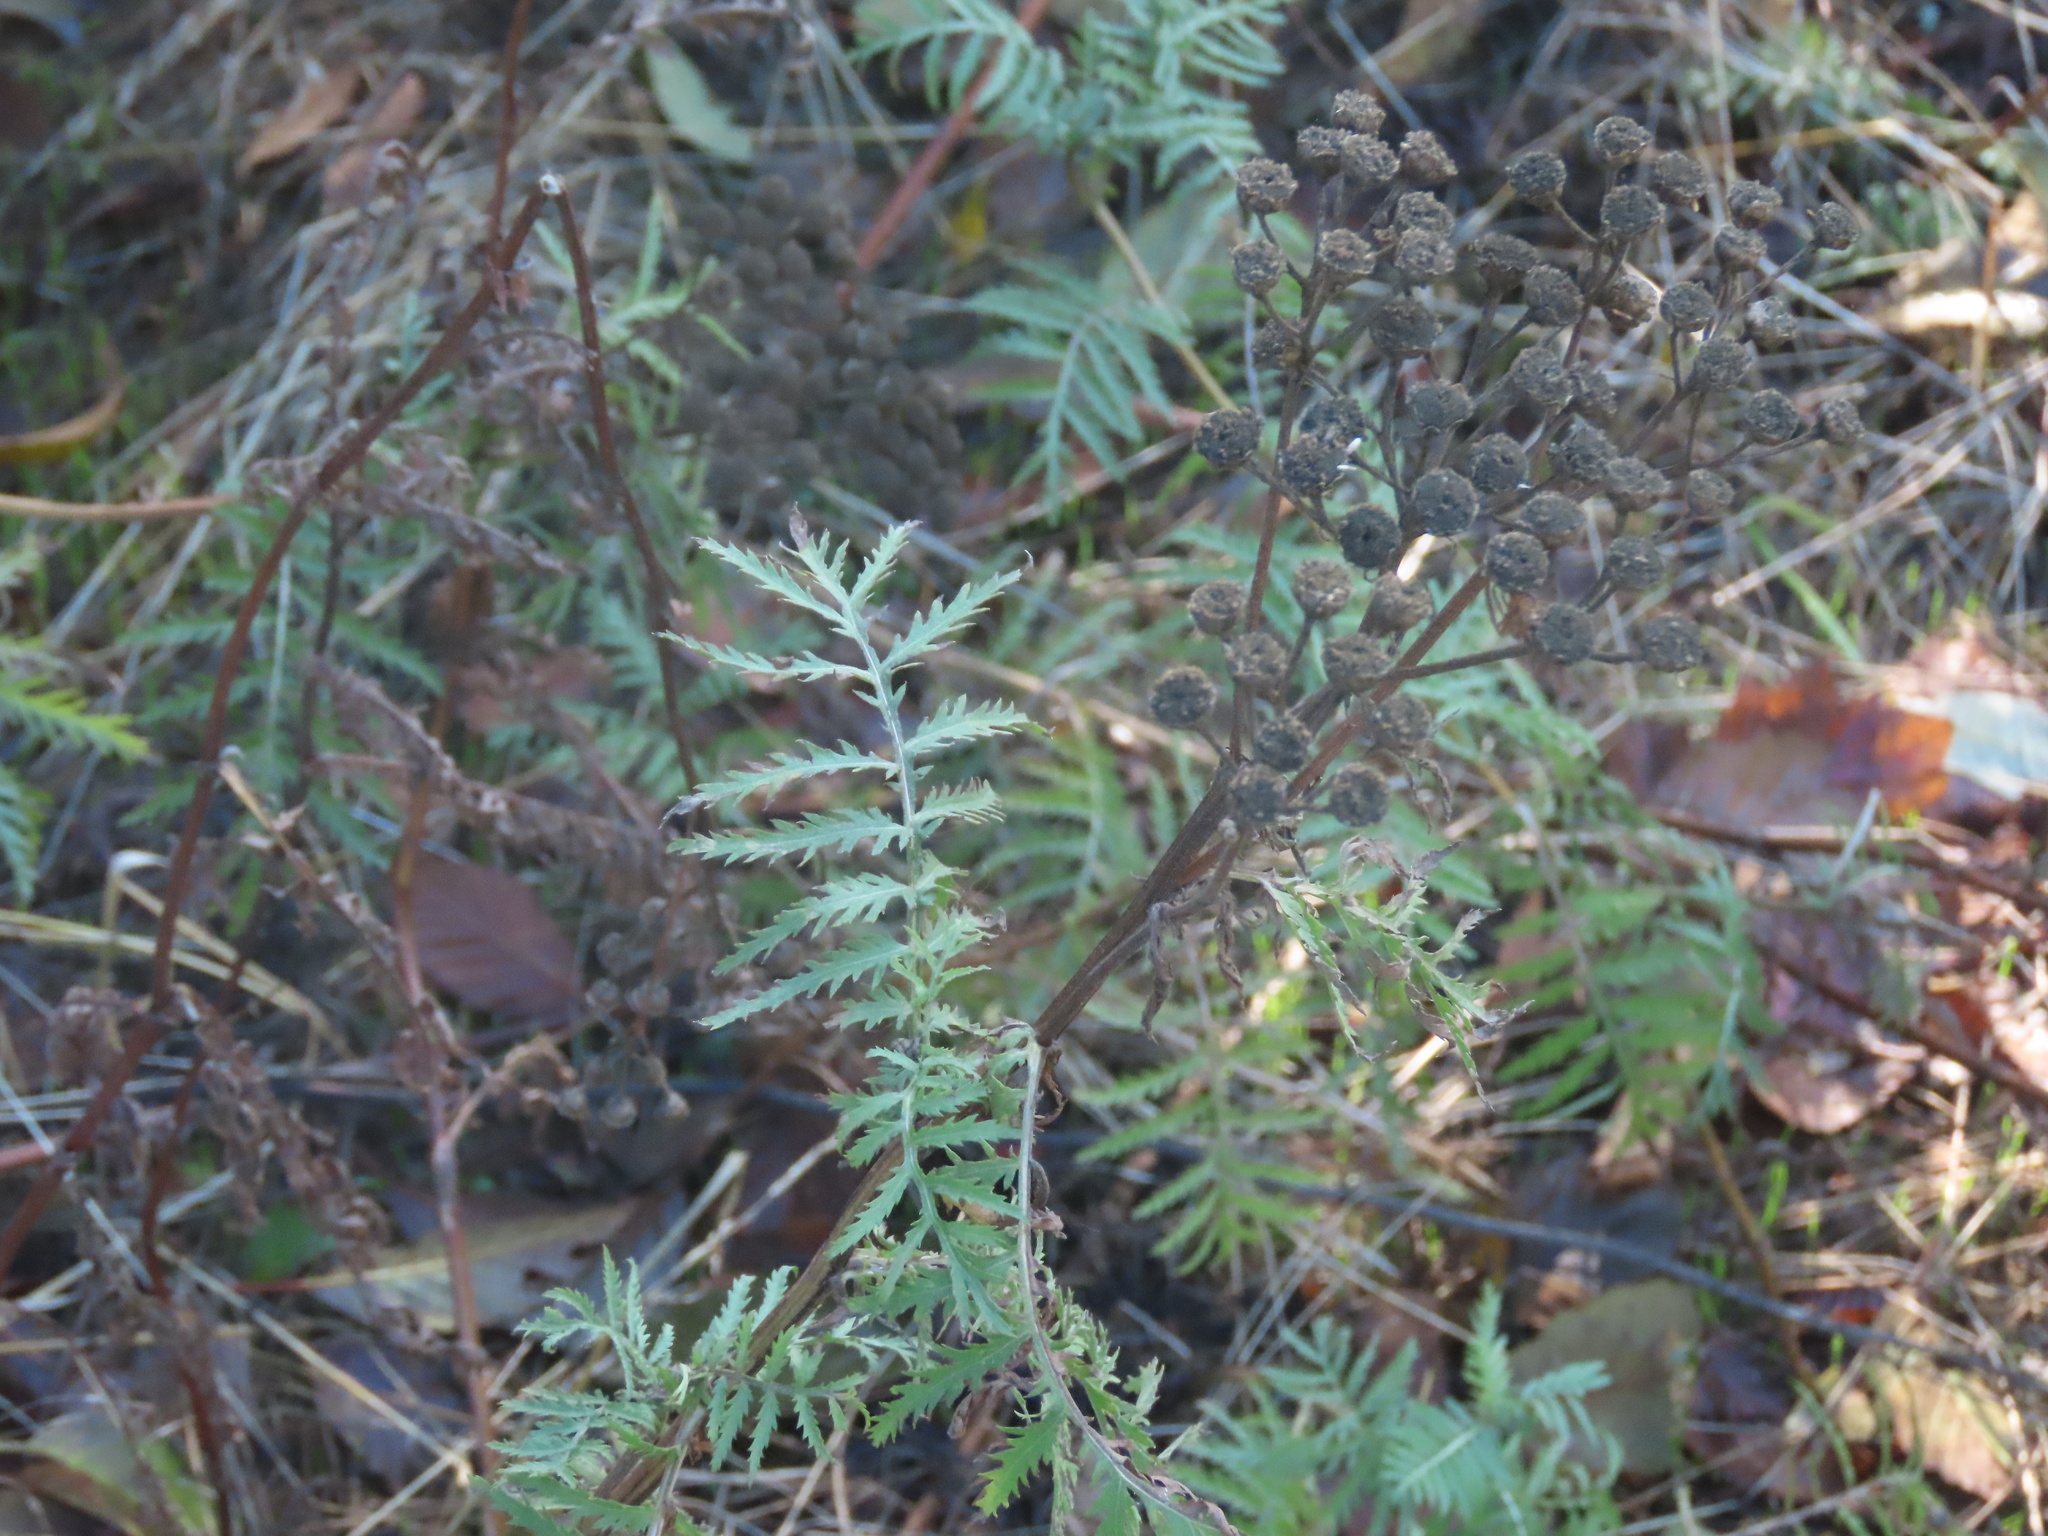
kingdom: Plantae
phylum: Tracheophyta
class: Magnoliopsida
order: Asterales
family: Asteraceae
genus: Tanacetum
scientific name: Tanacetum vulgare
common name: Common tansy
